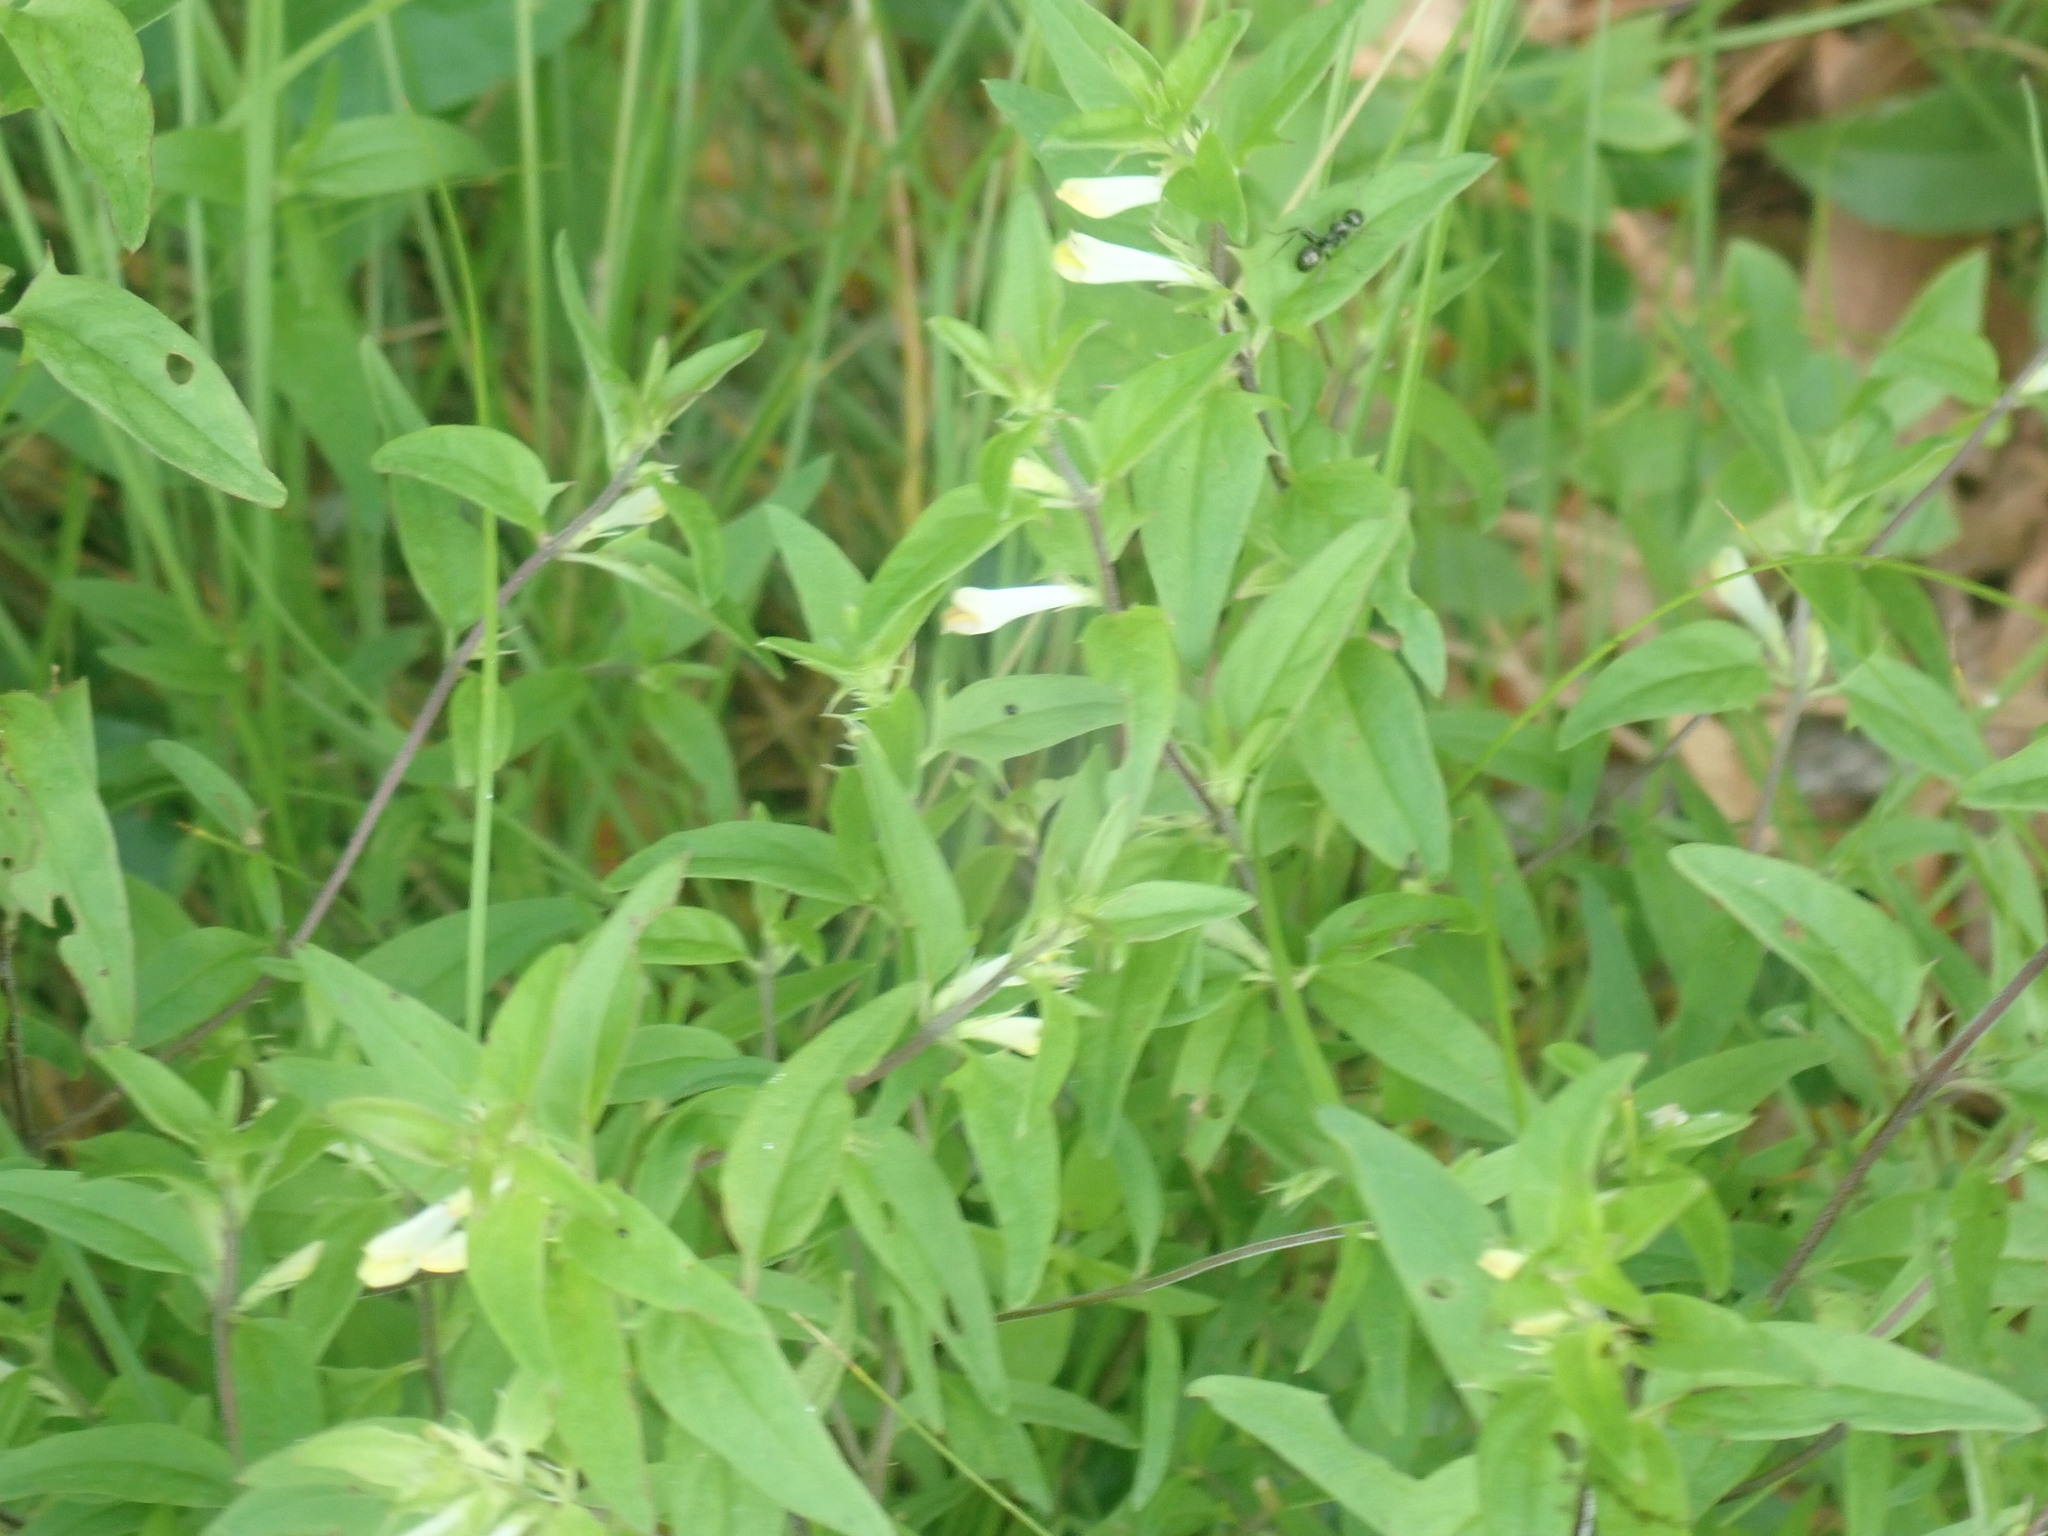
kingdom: Plantae
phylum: Tracheophyta
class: Magnoliopsida
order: Lamiales
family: Orobanchaceae
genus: Melampyrum
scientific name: Melampyrum lineare
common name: American cow-wheat
